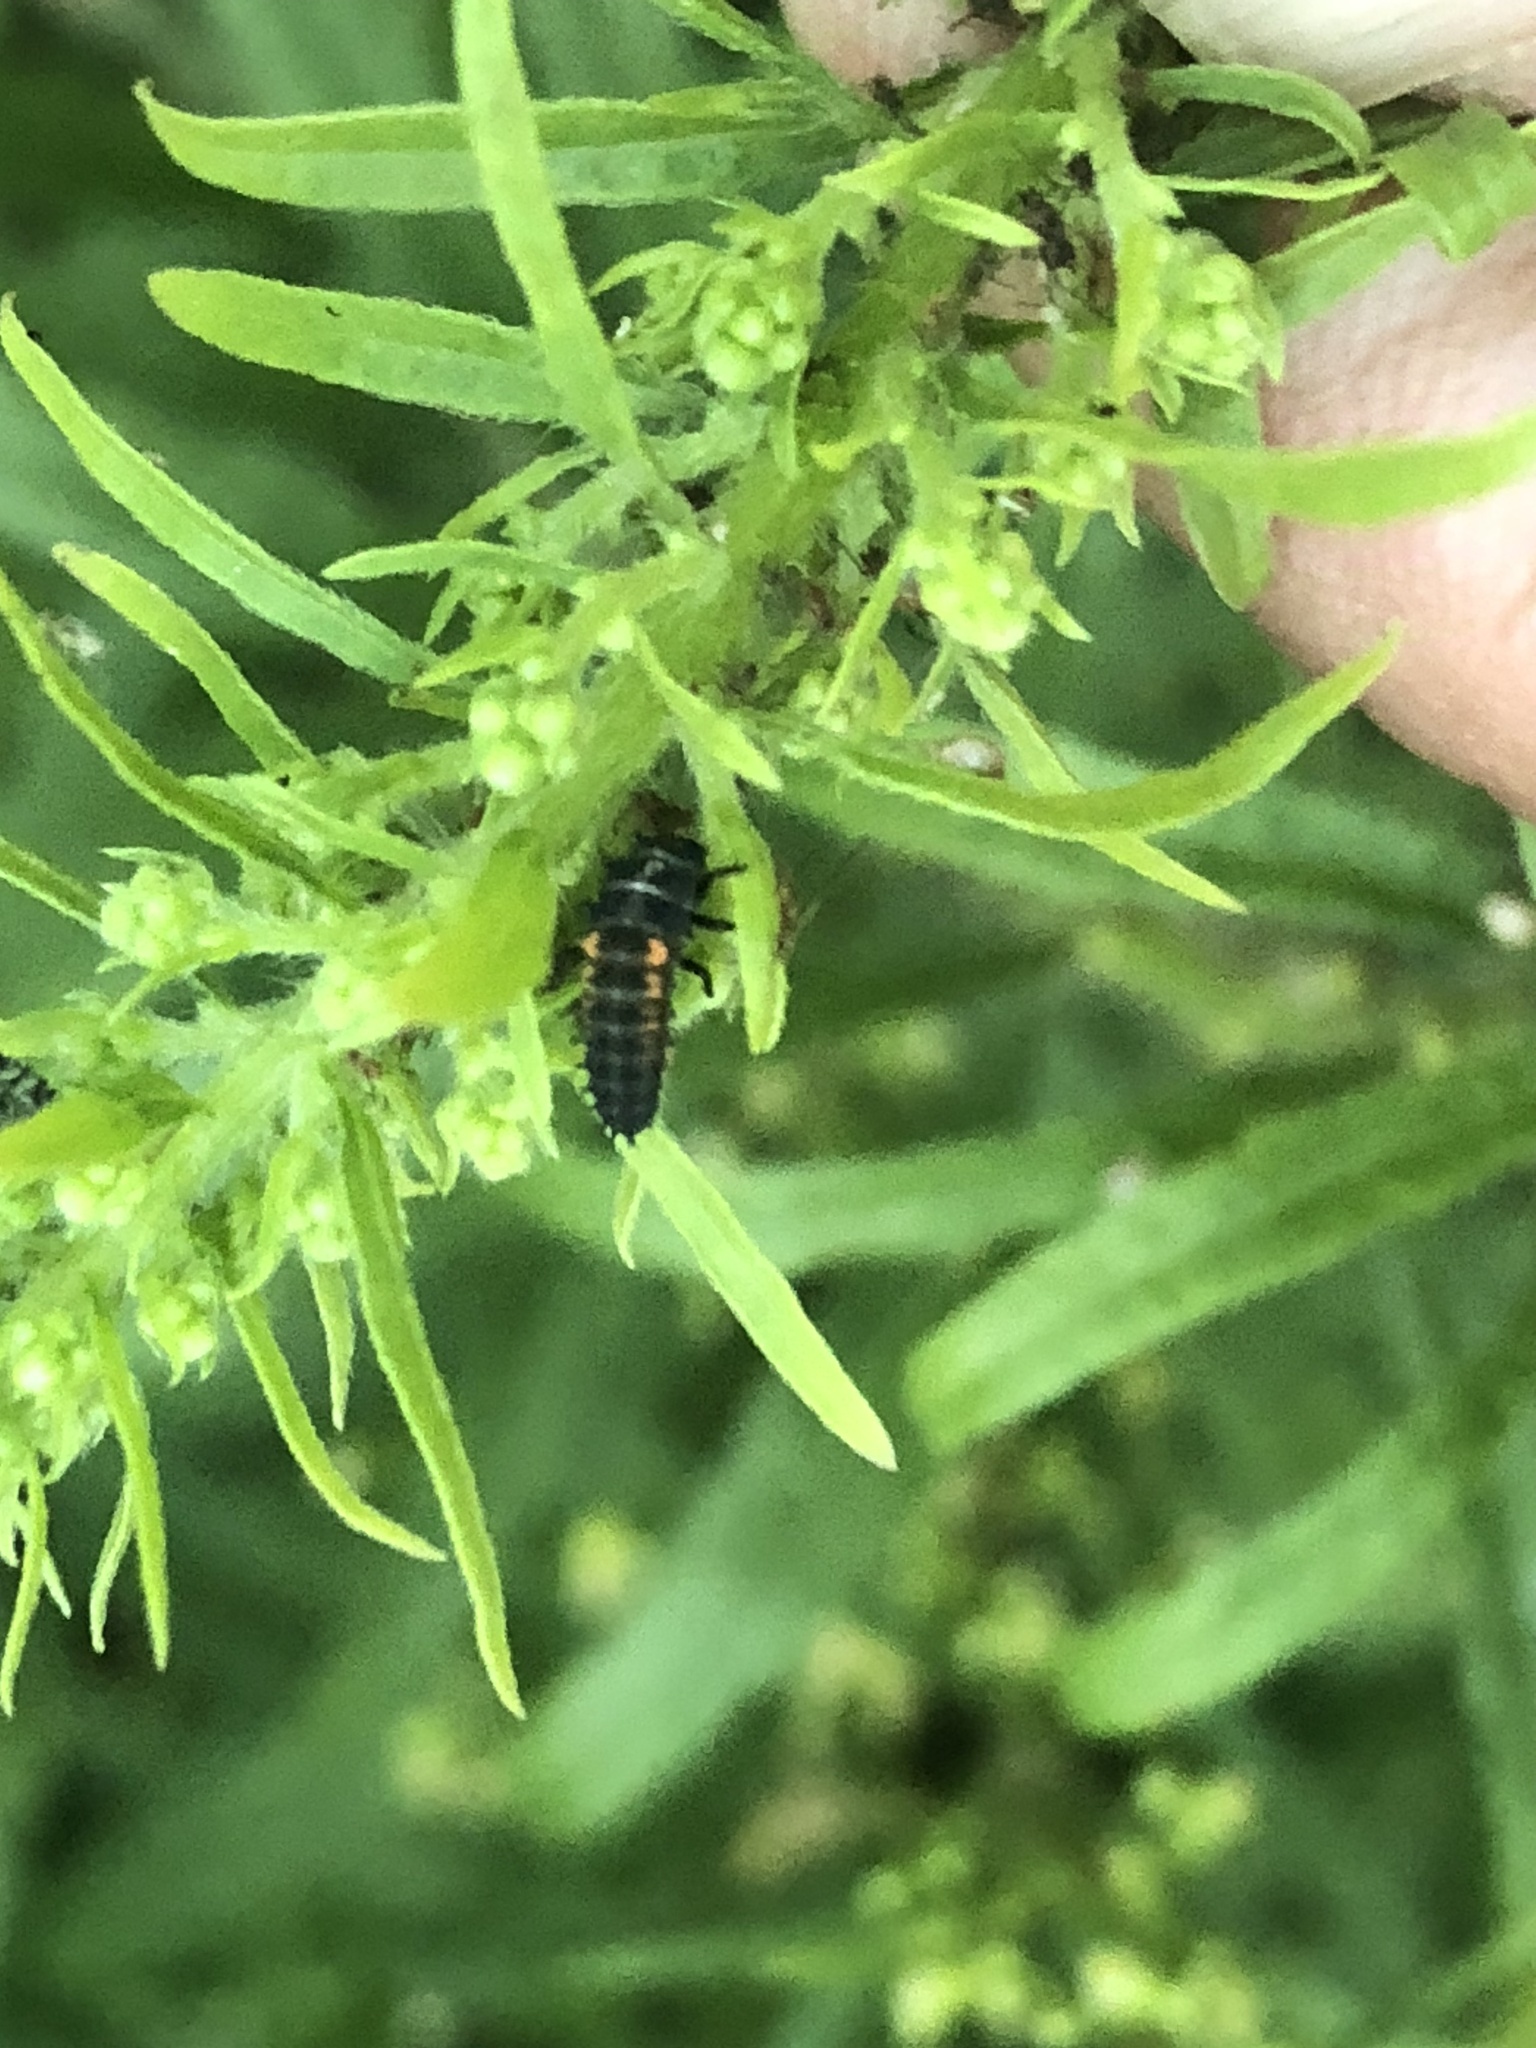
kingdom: Animalia
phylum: Arthropoda
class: Insecta
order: Coleoptera
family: Coccinellidae
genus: Harmonia
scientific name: Harmonia axyridis
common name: Harlequin ladybird
